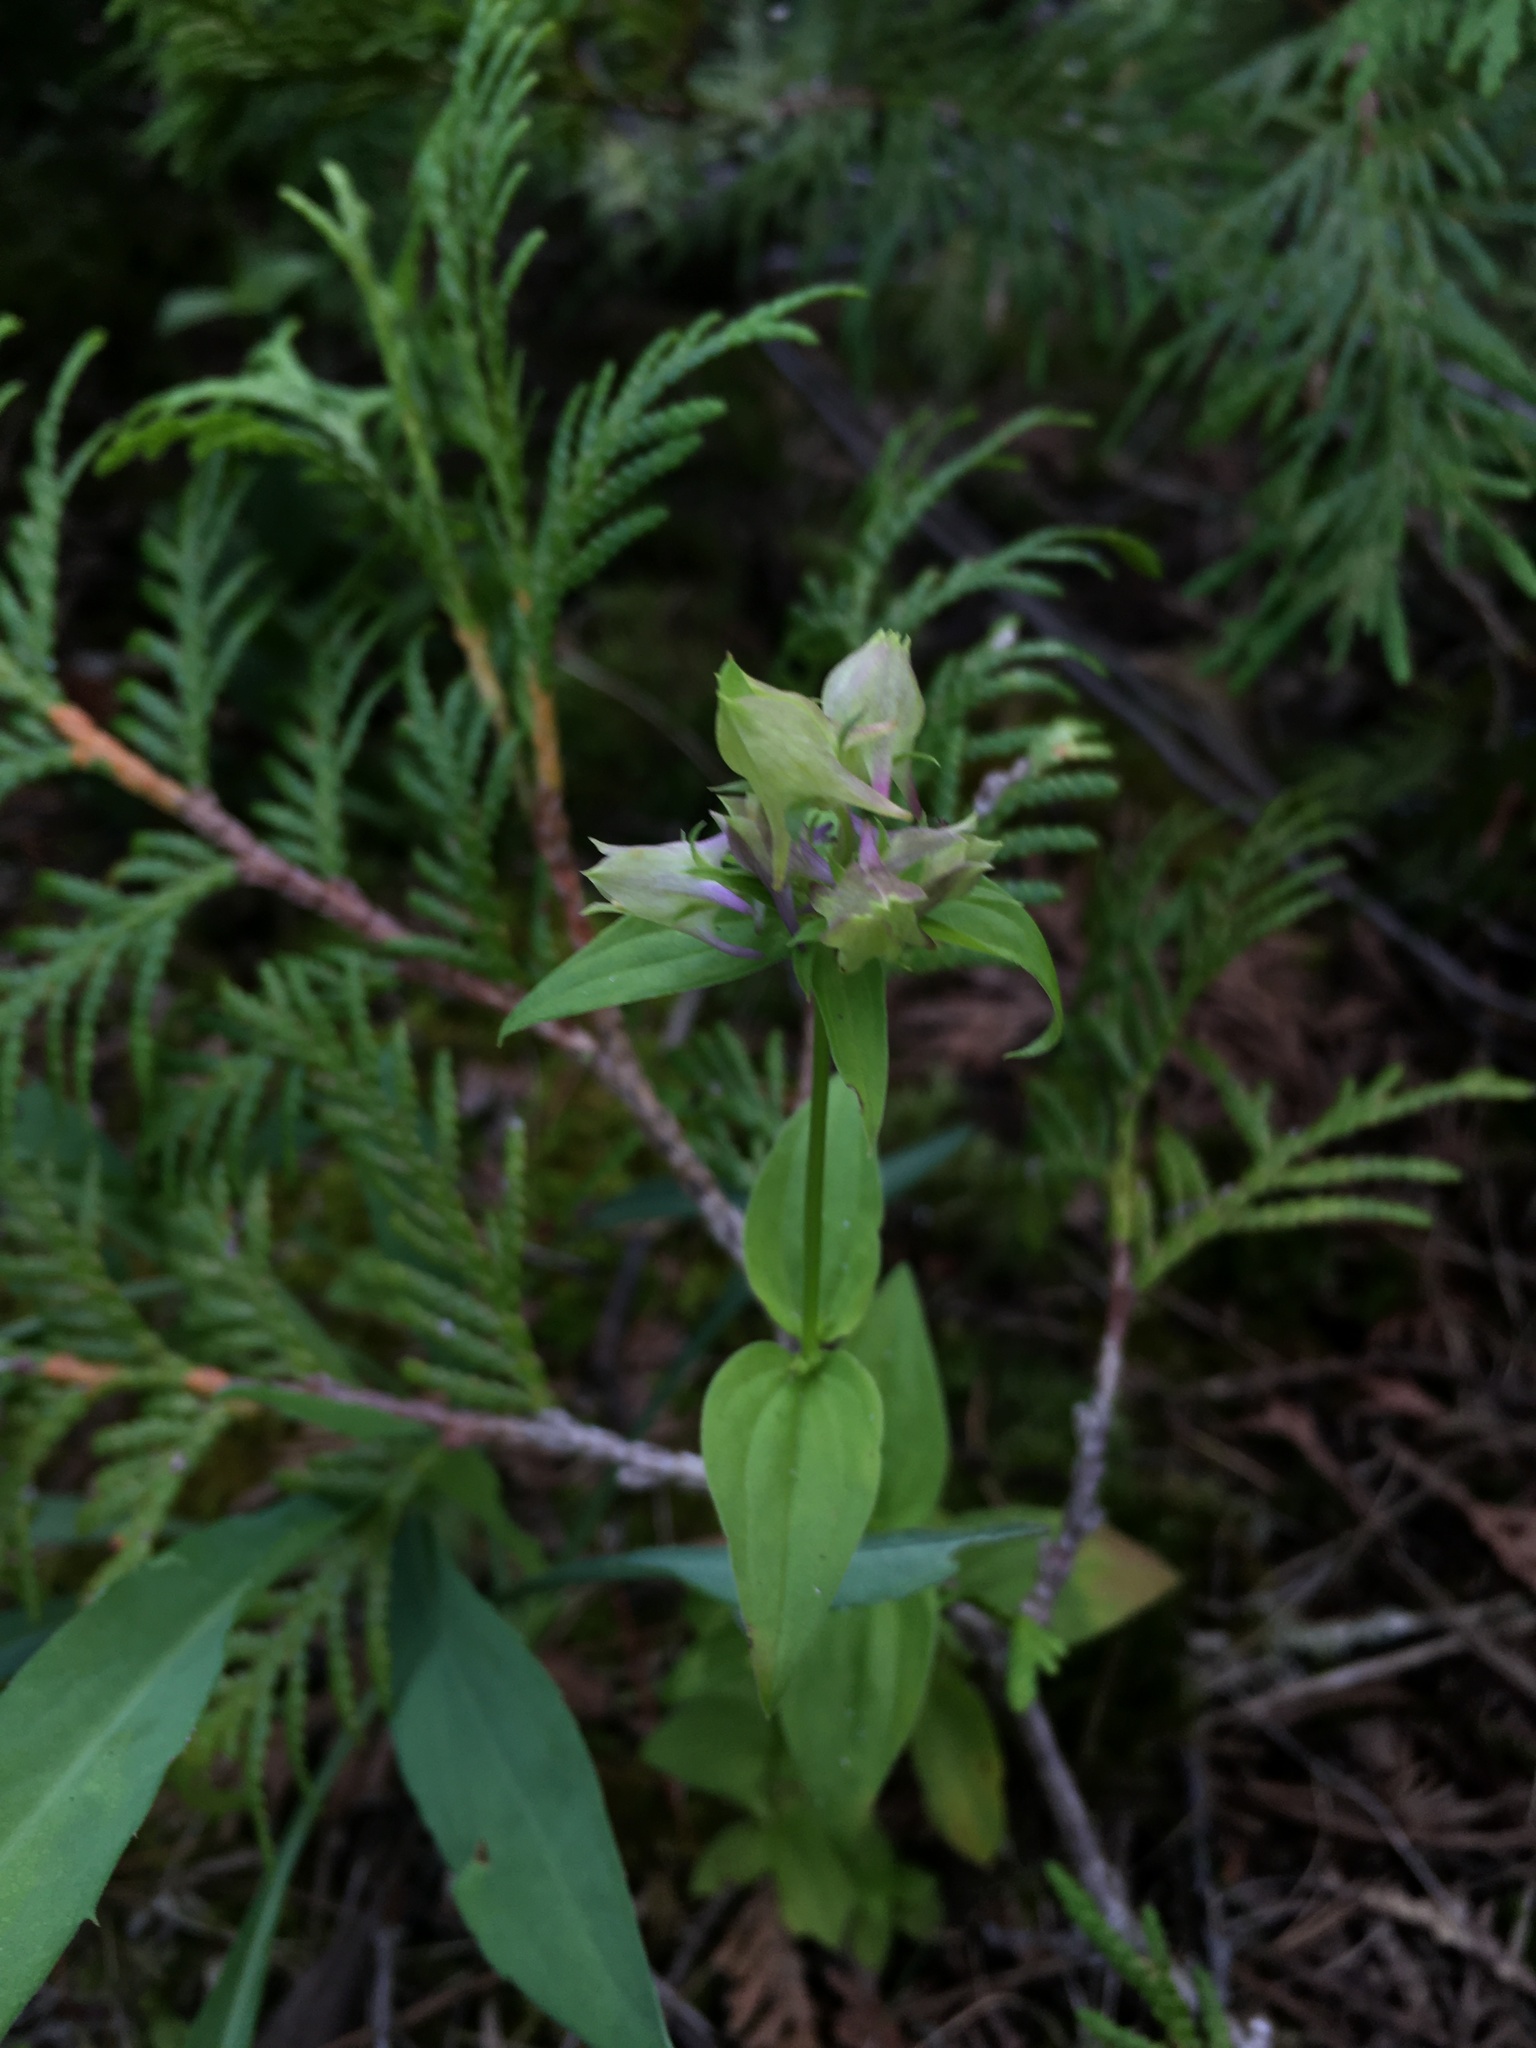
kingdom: Plantae
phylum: Tracheophyta
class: Magnoliopsida
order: Gentianales
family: Gentianaceae
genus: Halenia
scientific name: Halenia deflexa
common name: American spurred gentian
